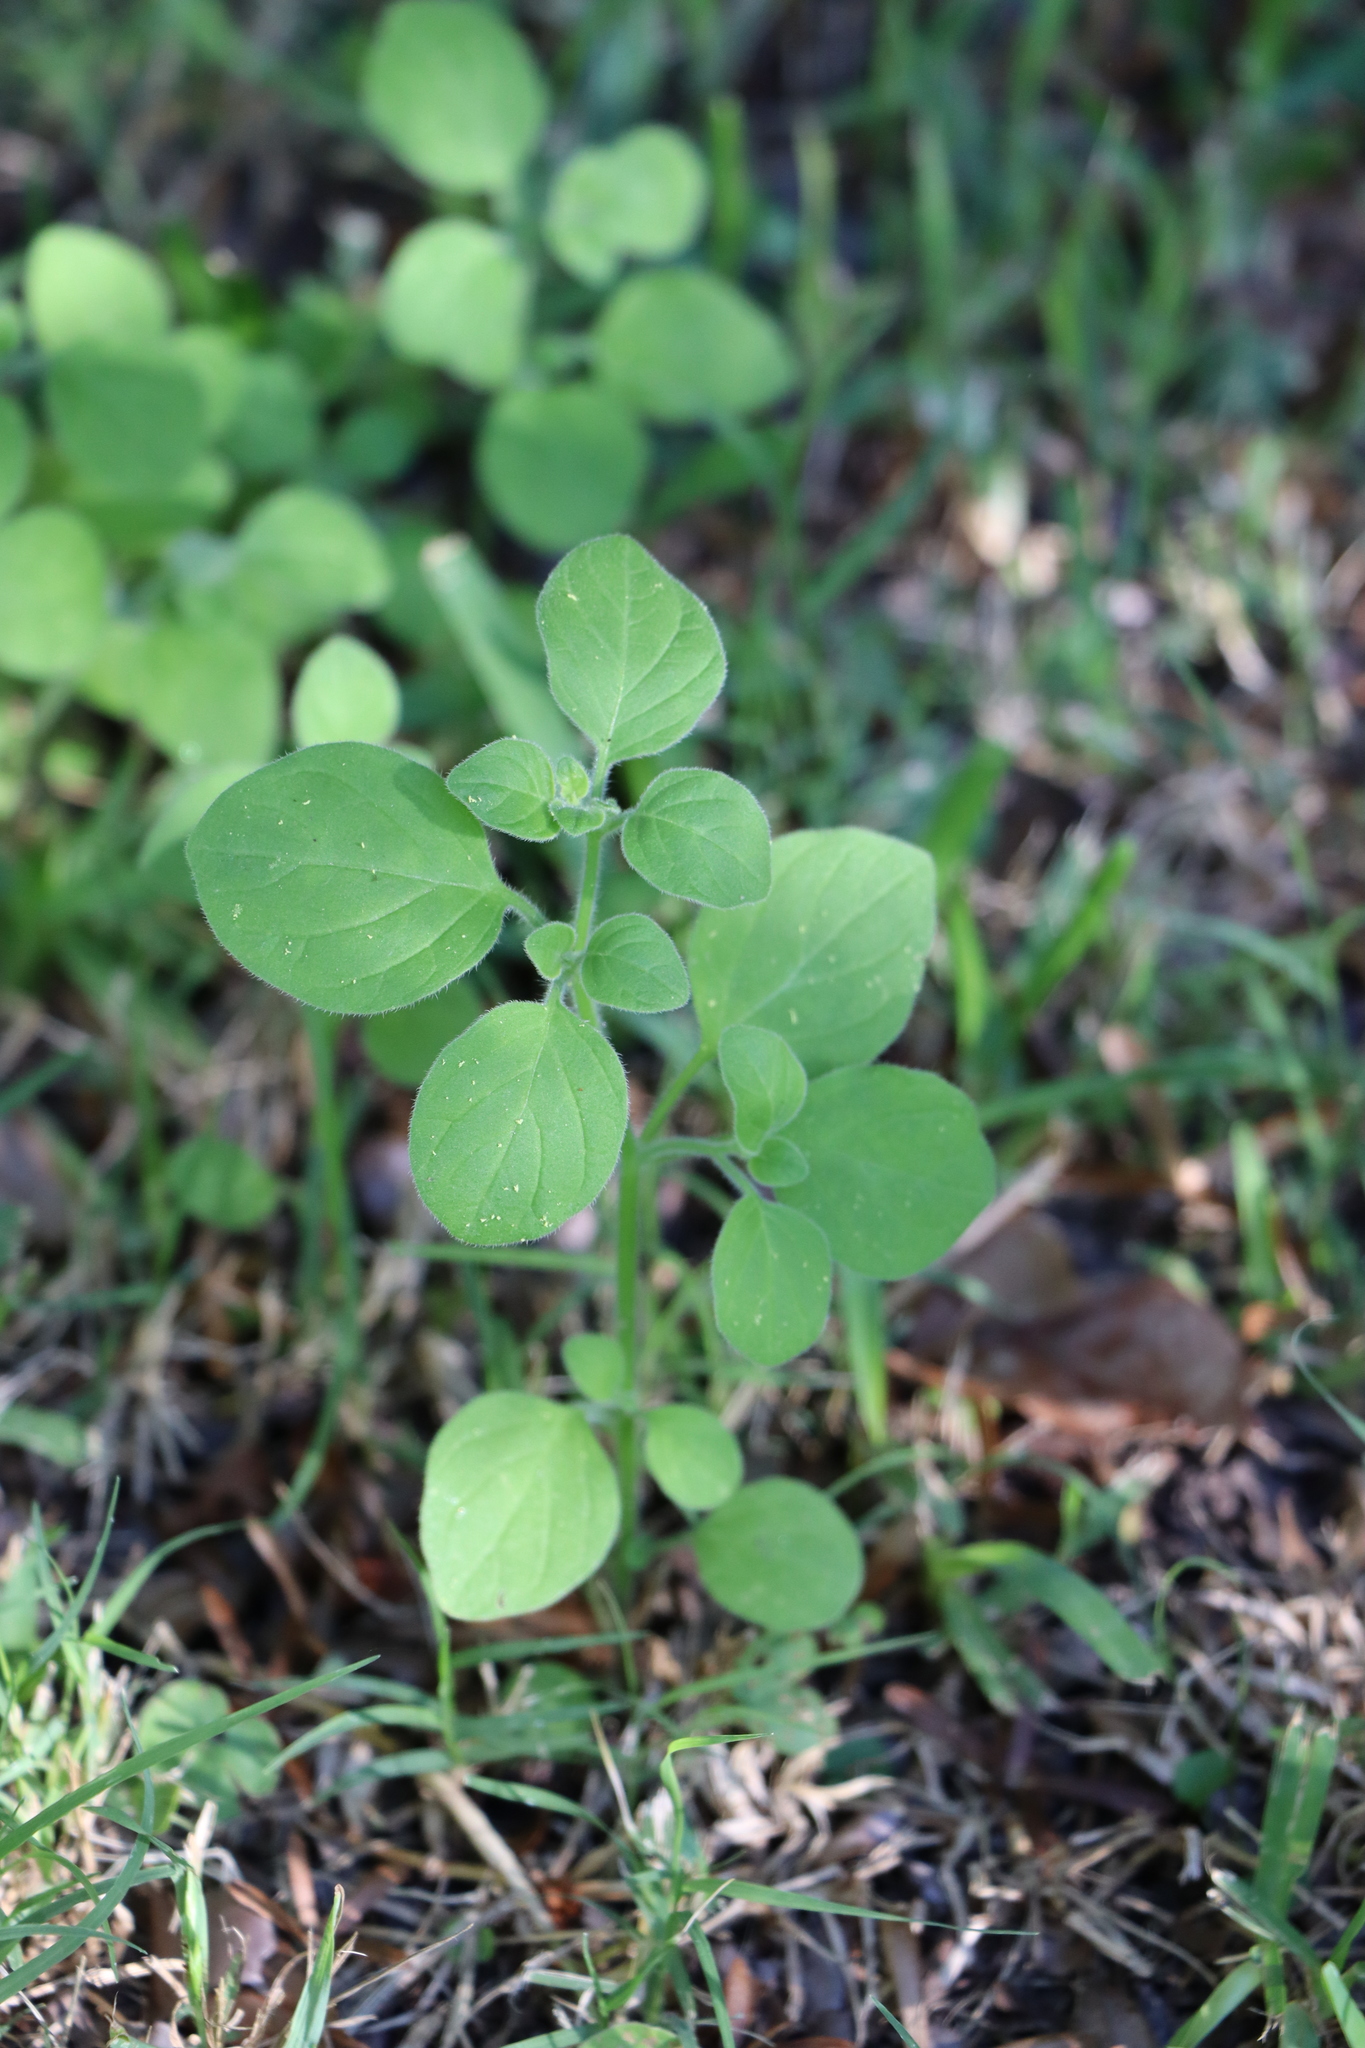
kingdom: Plantae
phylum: Tracheophyta
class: Magnoliopsida
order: Solanales
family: Solanaceae
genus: Salpichroa
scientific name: Salpichroa origanifolia
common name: Lily-of-the-valley-vine
